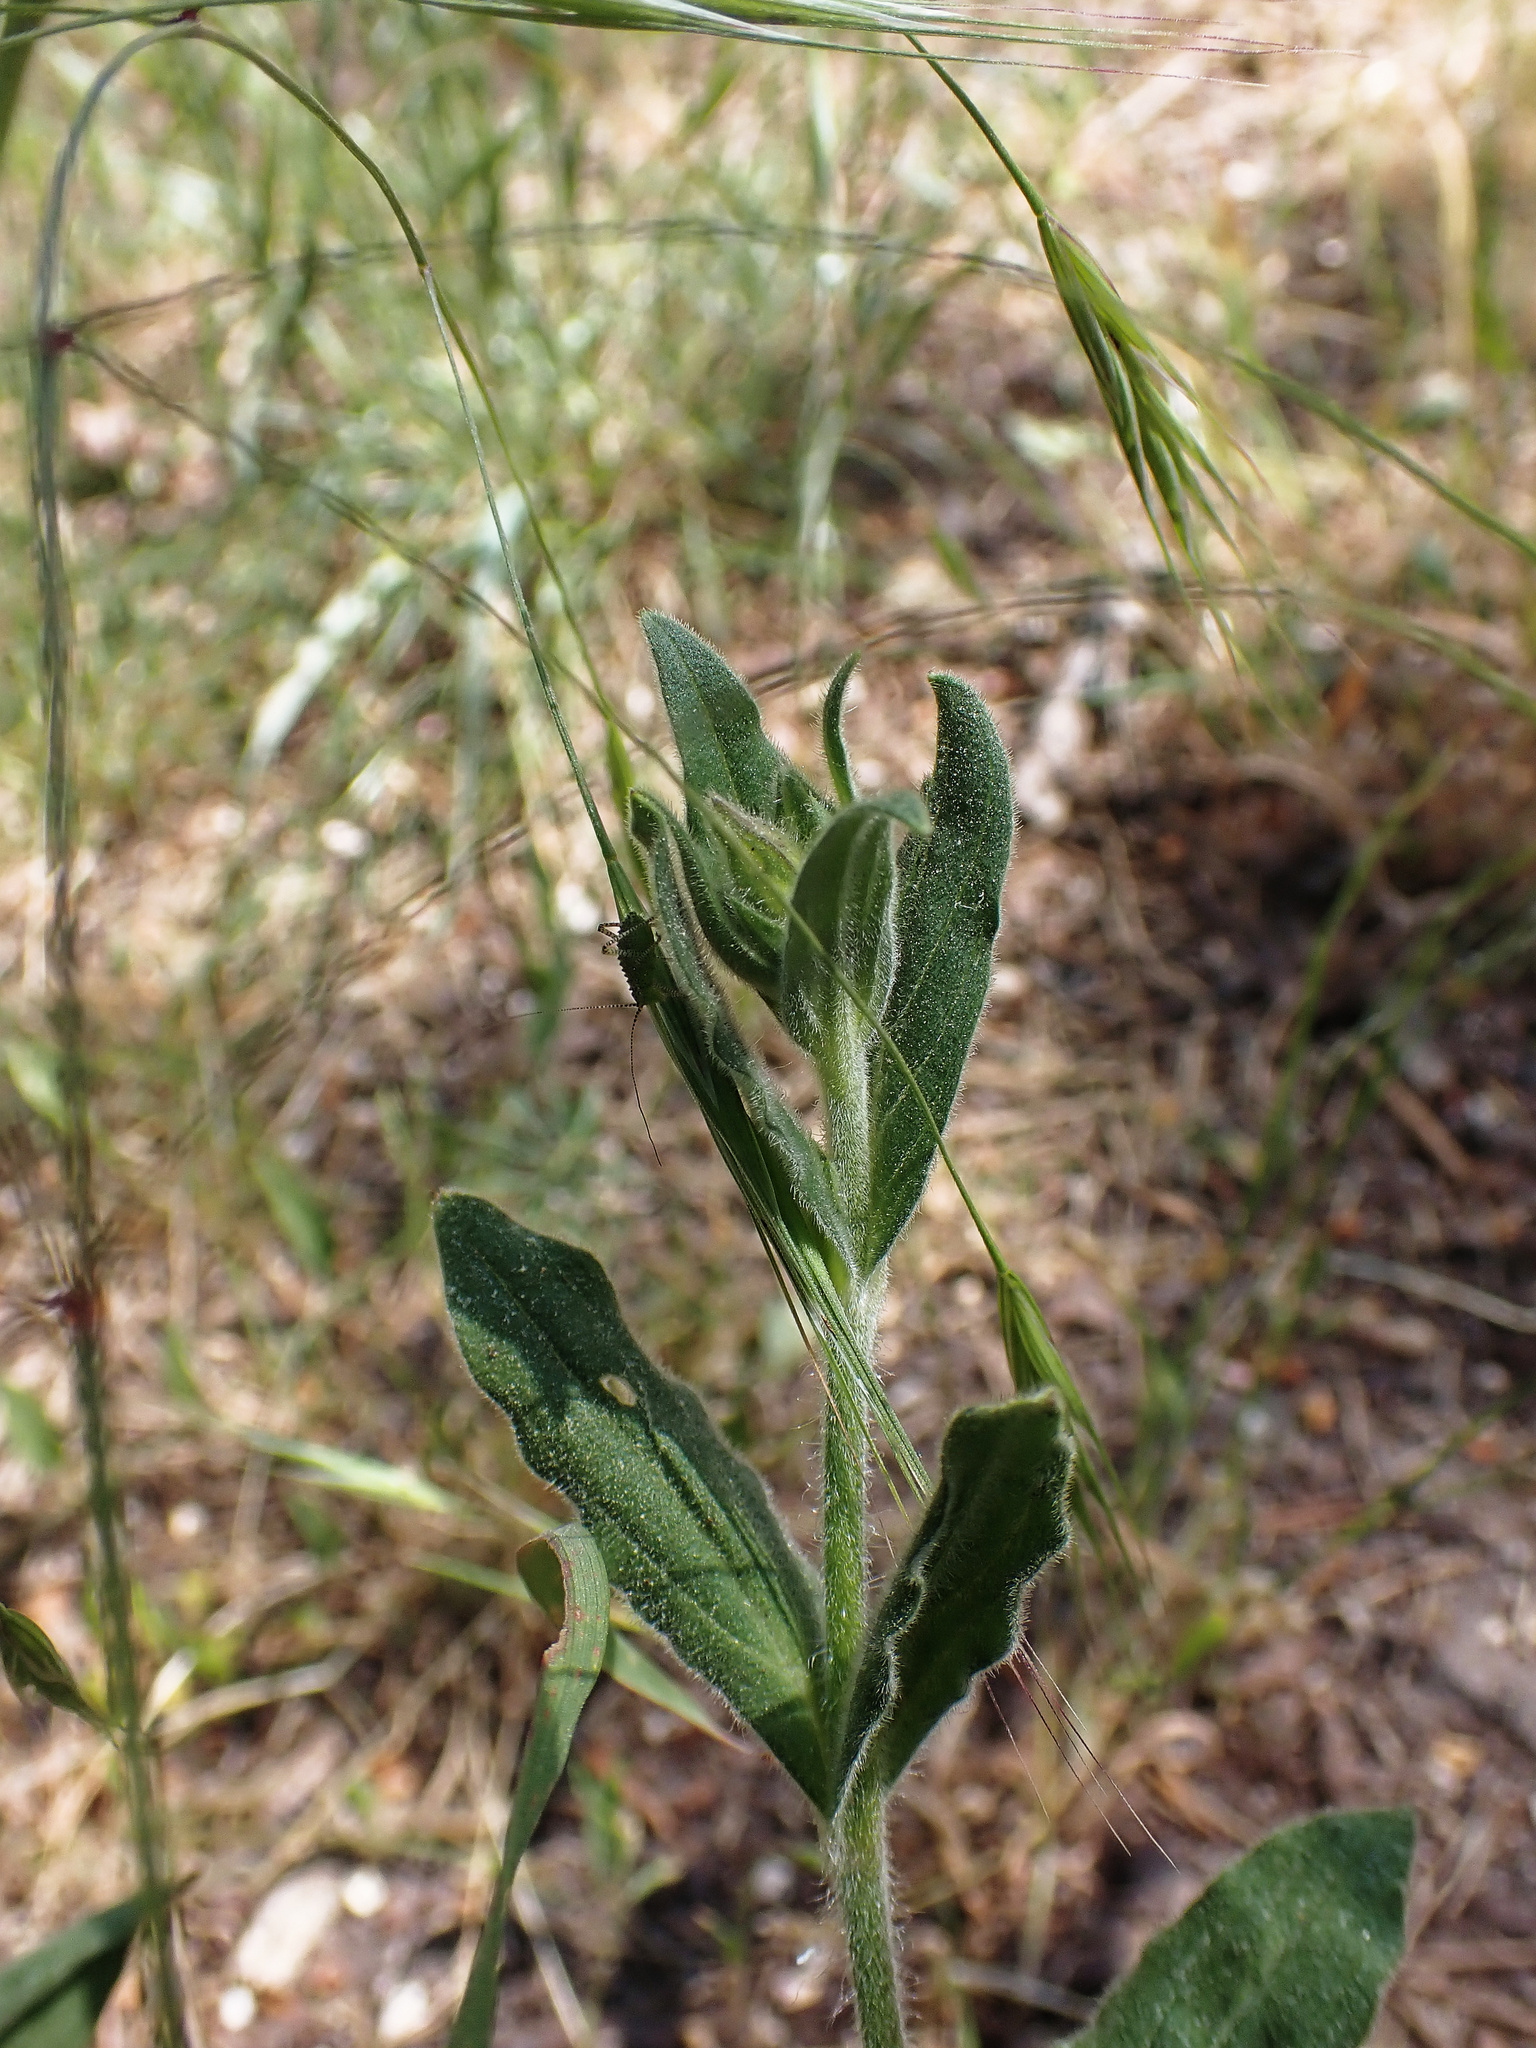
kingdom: Plantae
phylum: Tracheophyta
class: Magnoliopsida
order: Caryophyllales
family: Caryophyllaceae
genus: Silene
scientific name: Silene latifolia
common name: White campion
